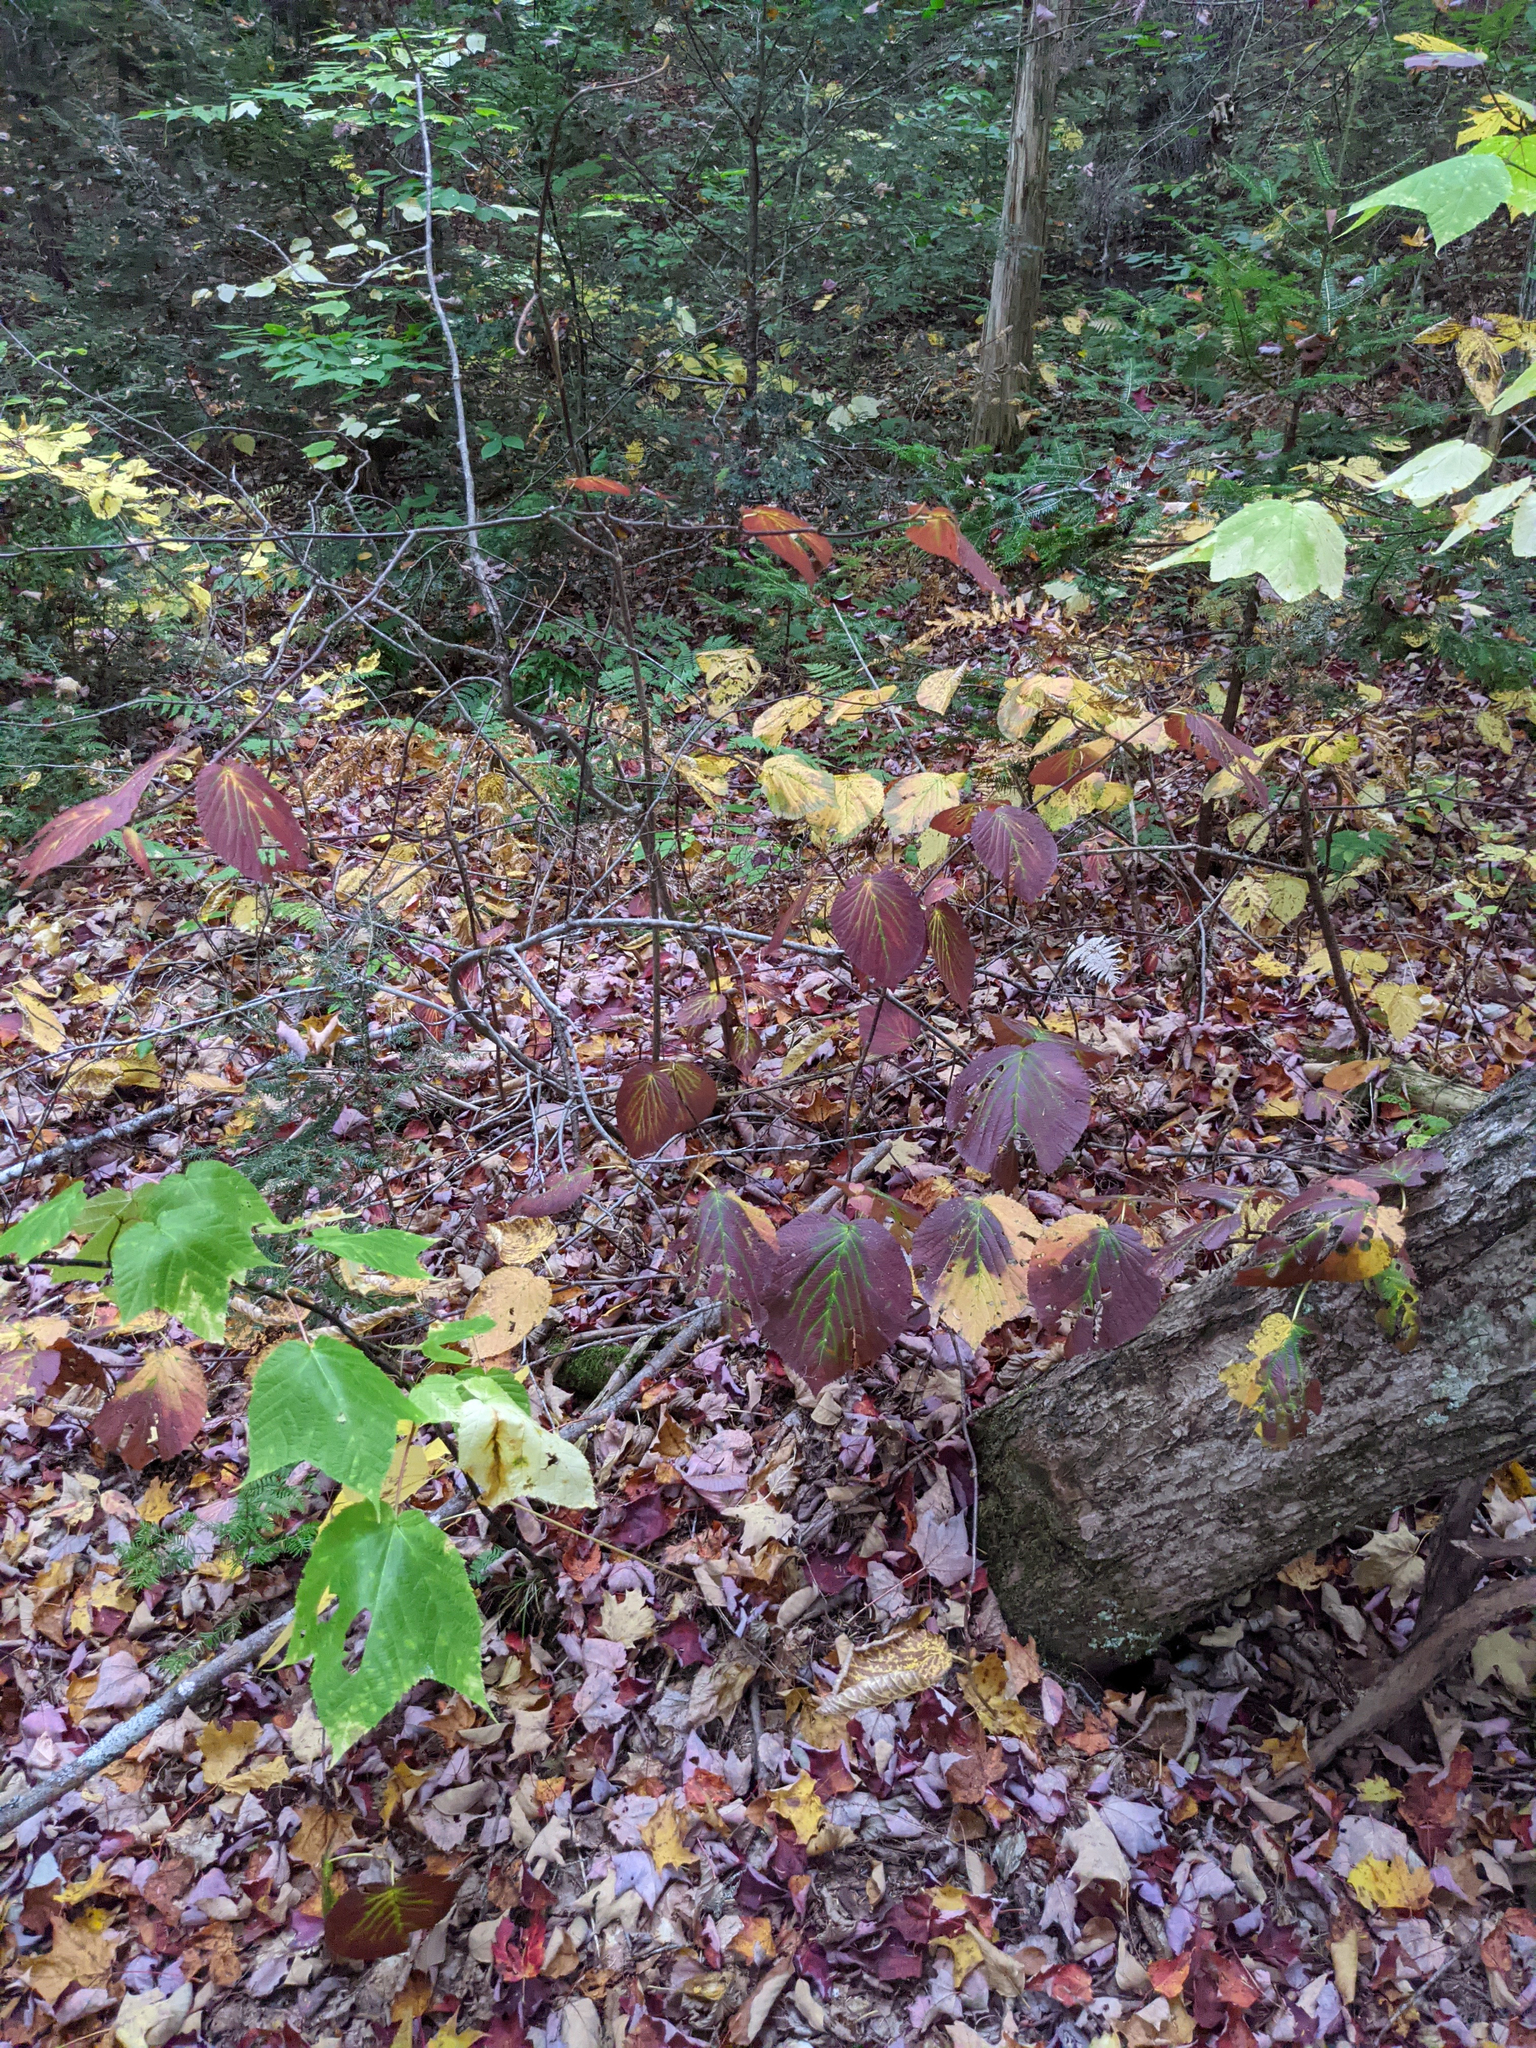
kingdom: Plantae
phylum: Tracheophyta
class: Magnoliopsida
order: Dipsacales
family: Viburnaceae
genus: Viburnum
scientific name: Viburnum lantanoides
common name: Hobblebush
